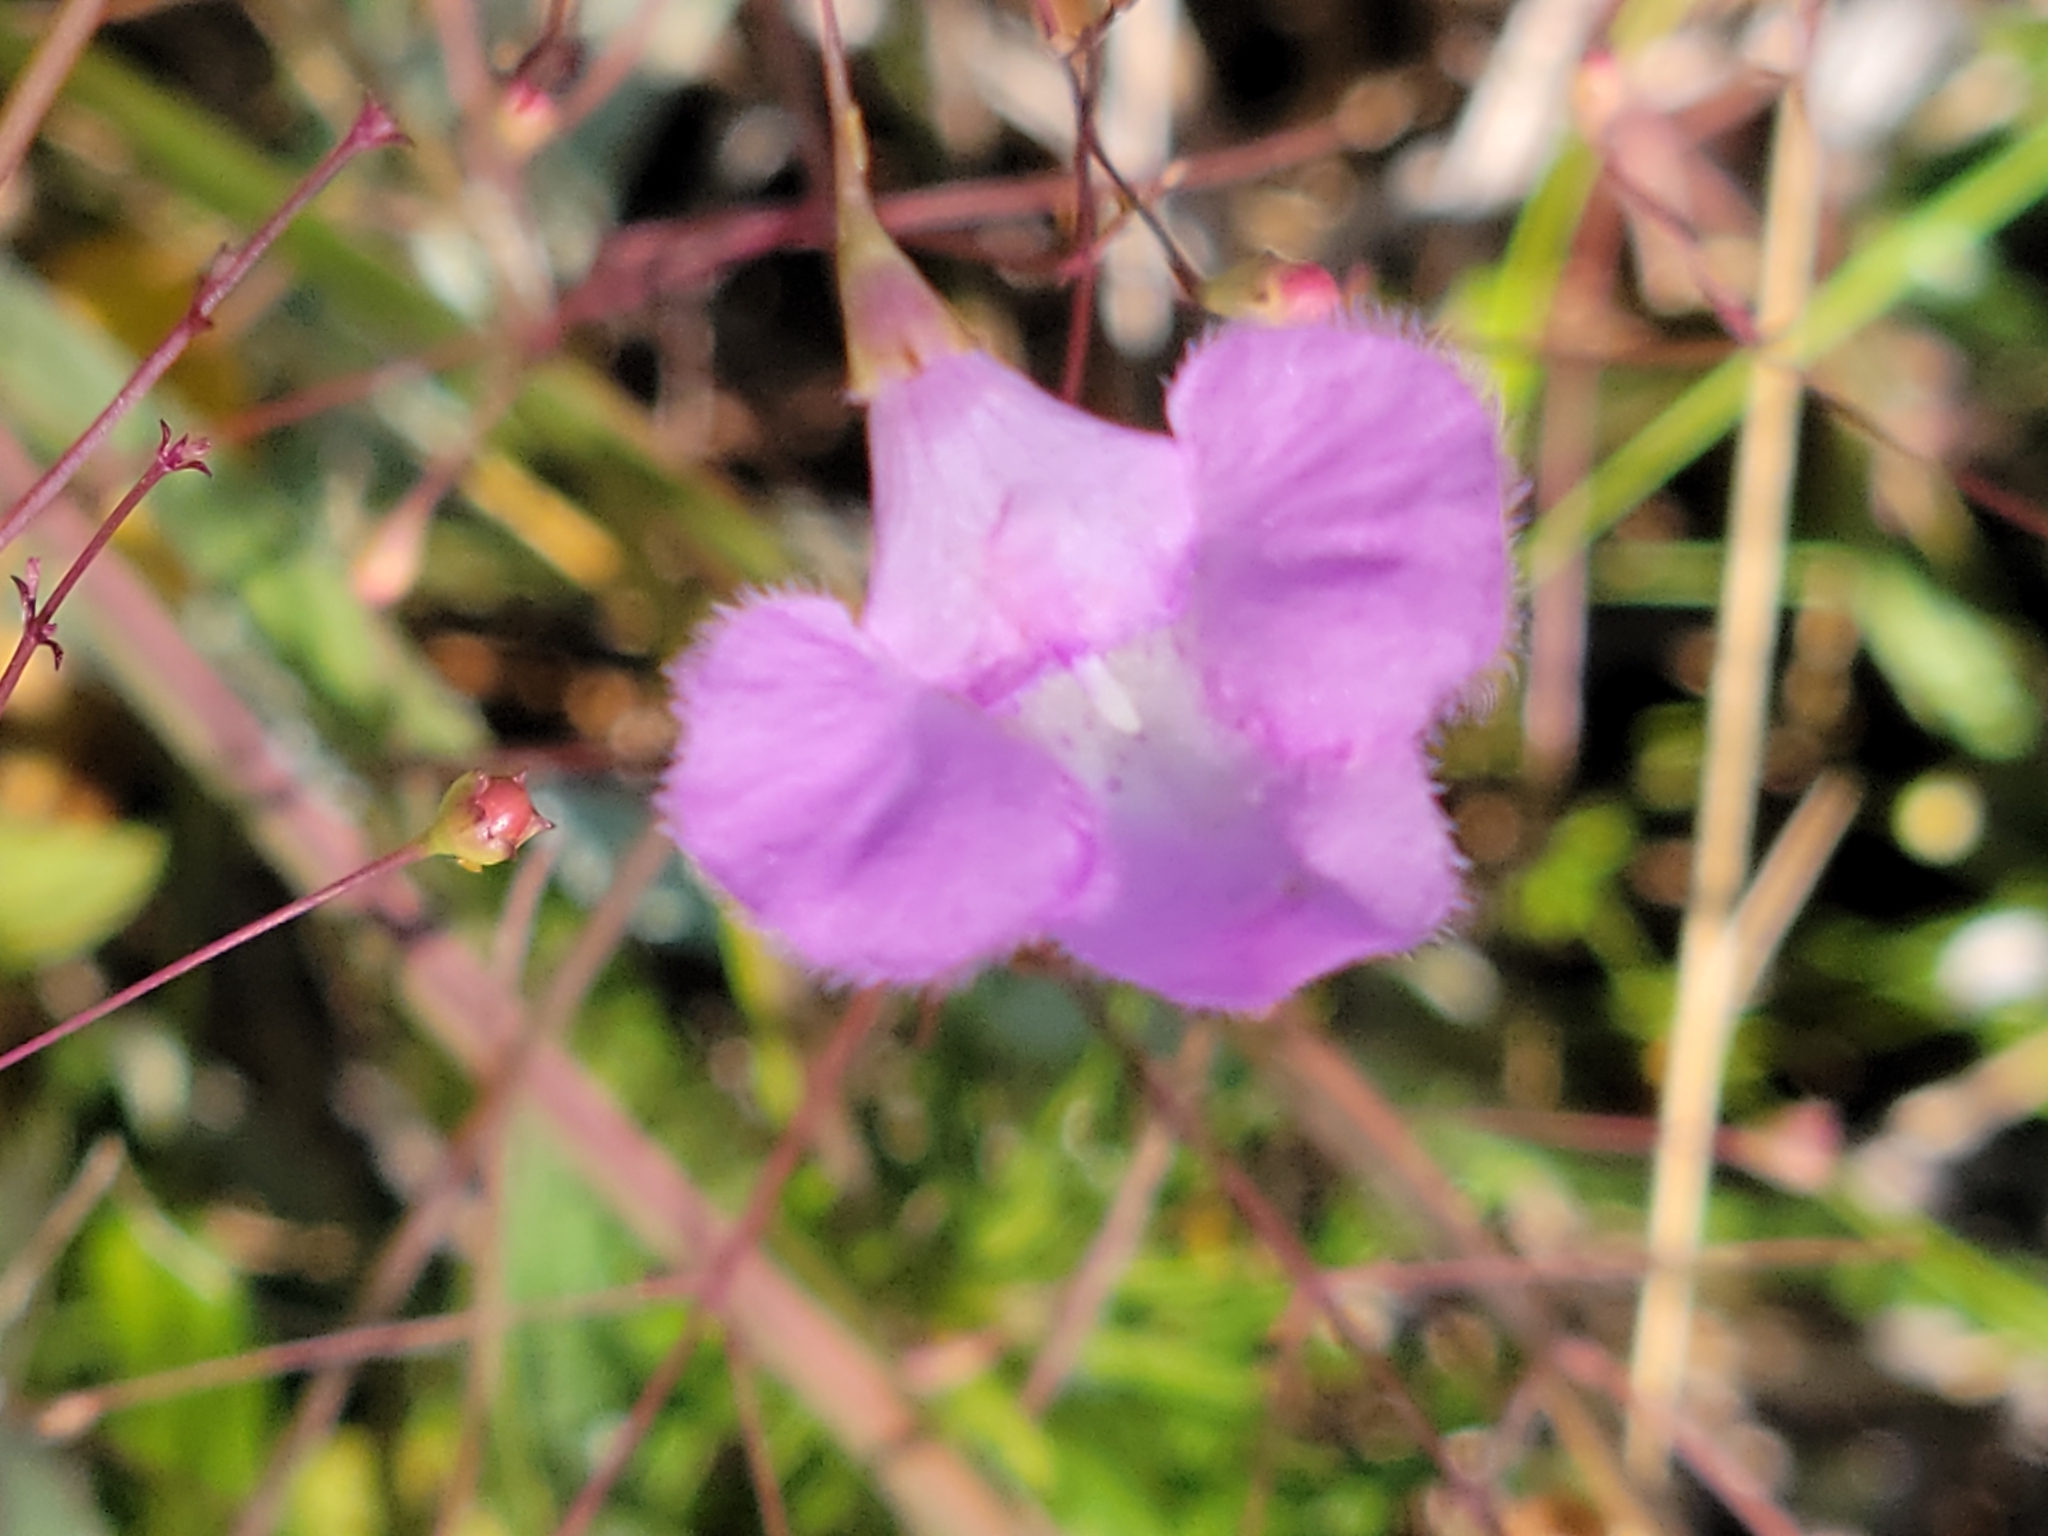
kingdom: Plantae
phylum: Tracheophyta
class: Magnoliopsida
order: Lamiales
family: Orobanchaceae
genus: Agalinis
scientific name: Agalinis divaricata
